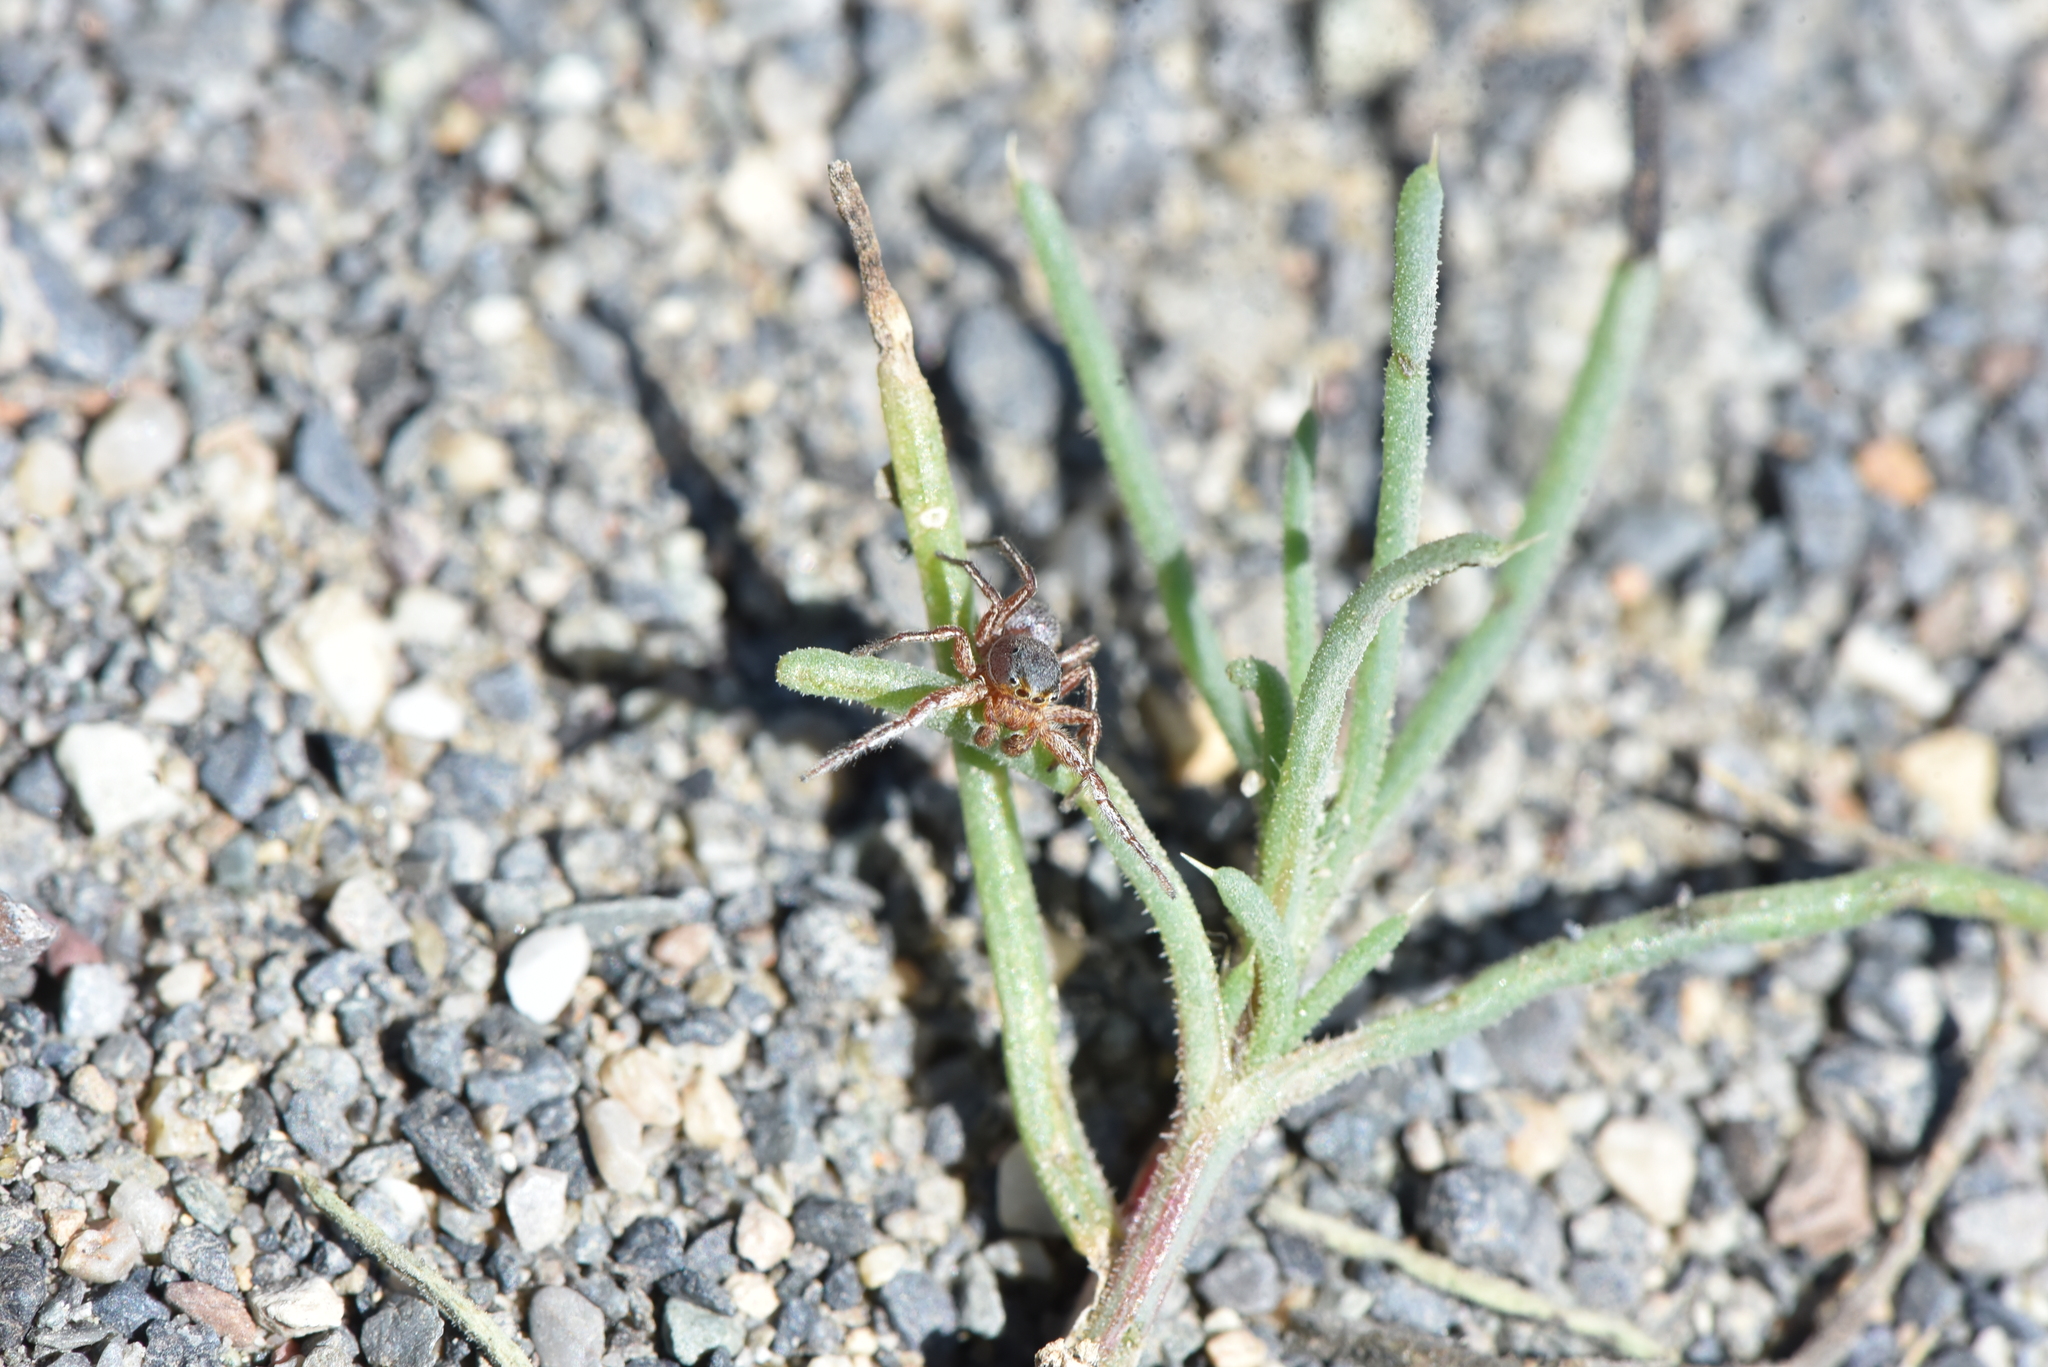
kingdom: Animalia
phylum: Arthropoda
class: Arachnida
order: Araneae
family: Salticidae
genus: Tutelina
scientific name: Tutelina similis
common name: Thick-spined jumping spider
